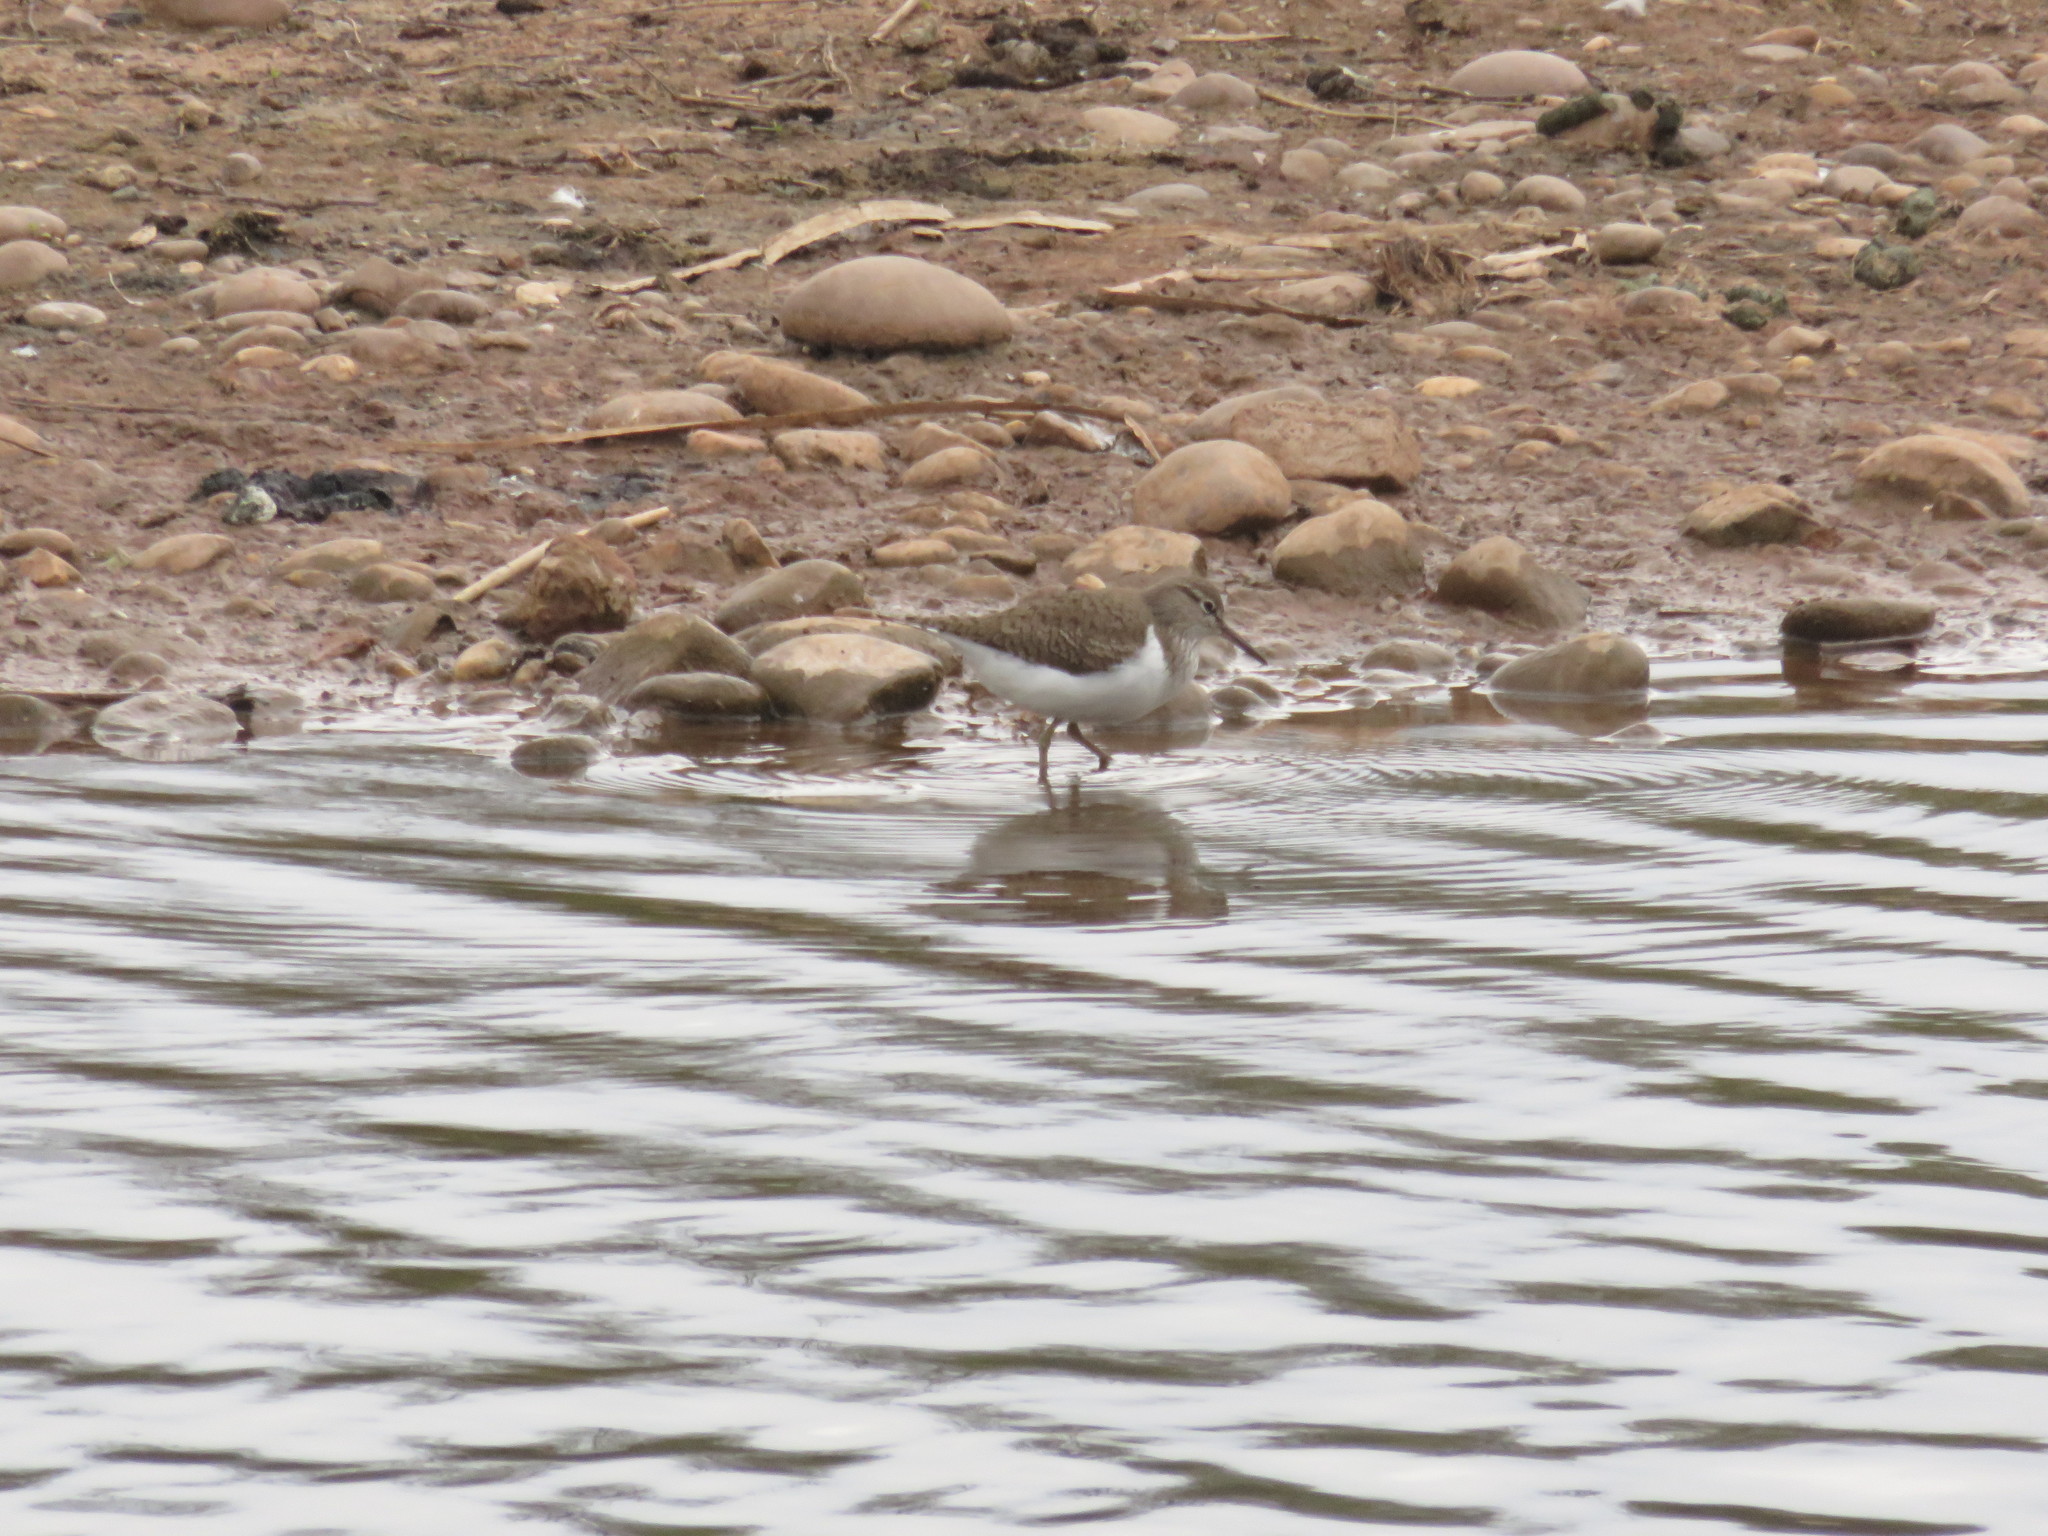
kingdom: Animalia
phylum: Chordata
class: Aves
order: Charadriiformes
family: Scolopacidae
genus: Actitis
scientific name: Actitis hypoleucos
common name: Common sandpiper
